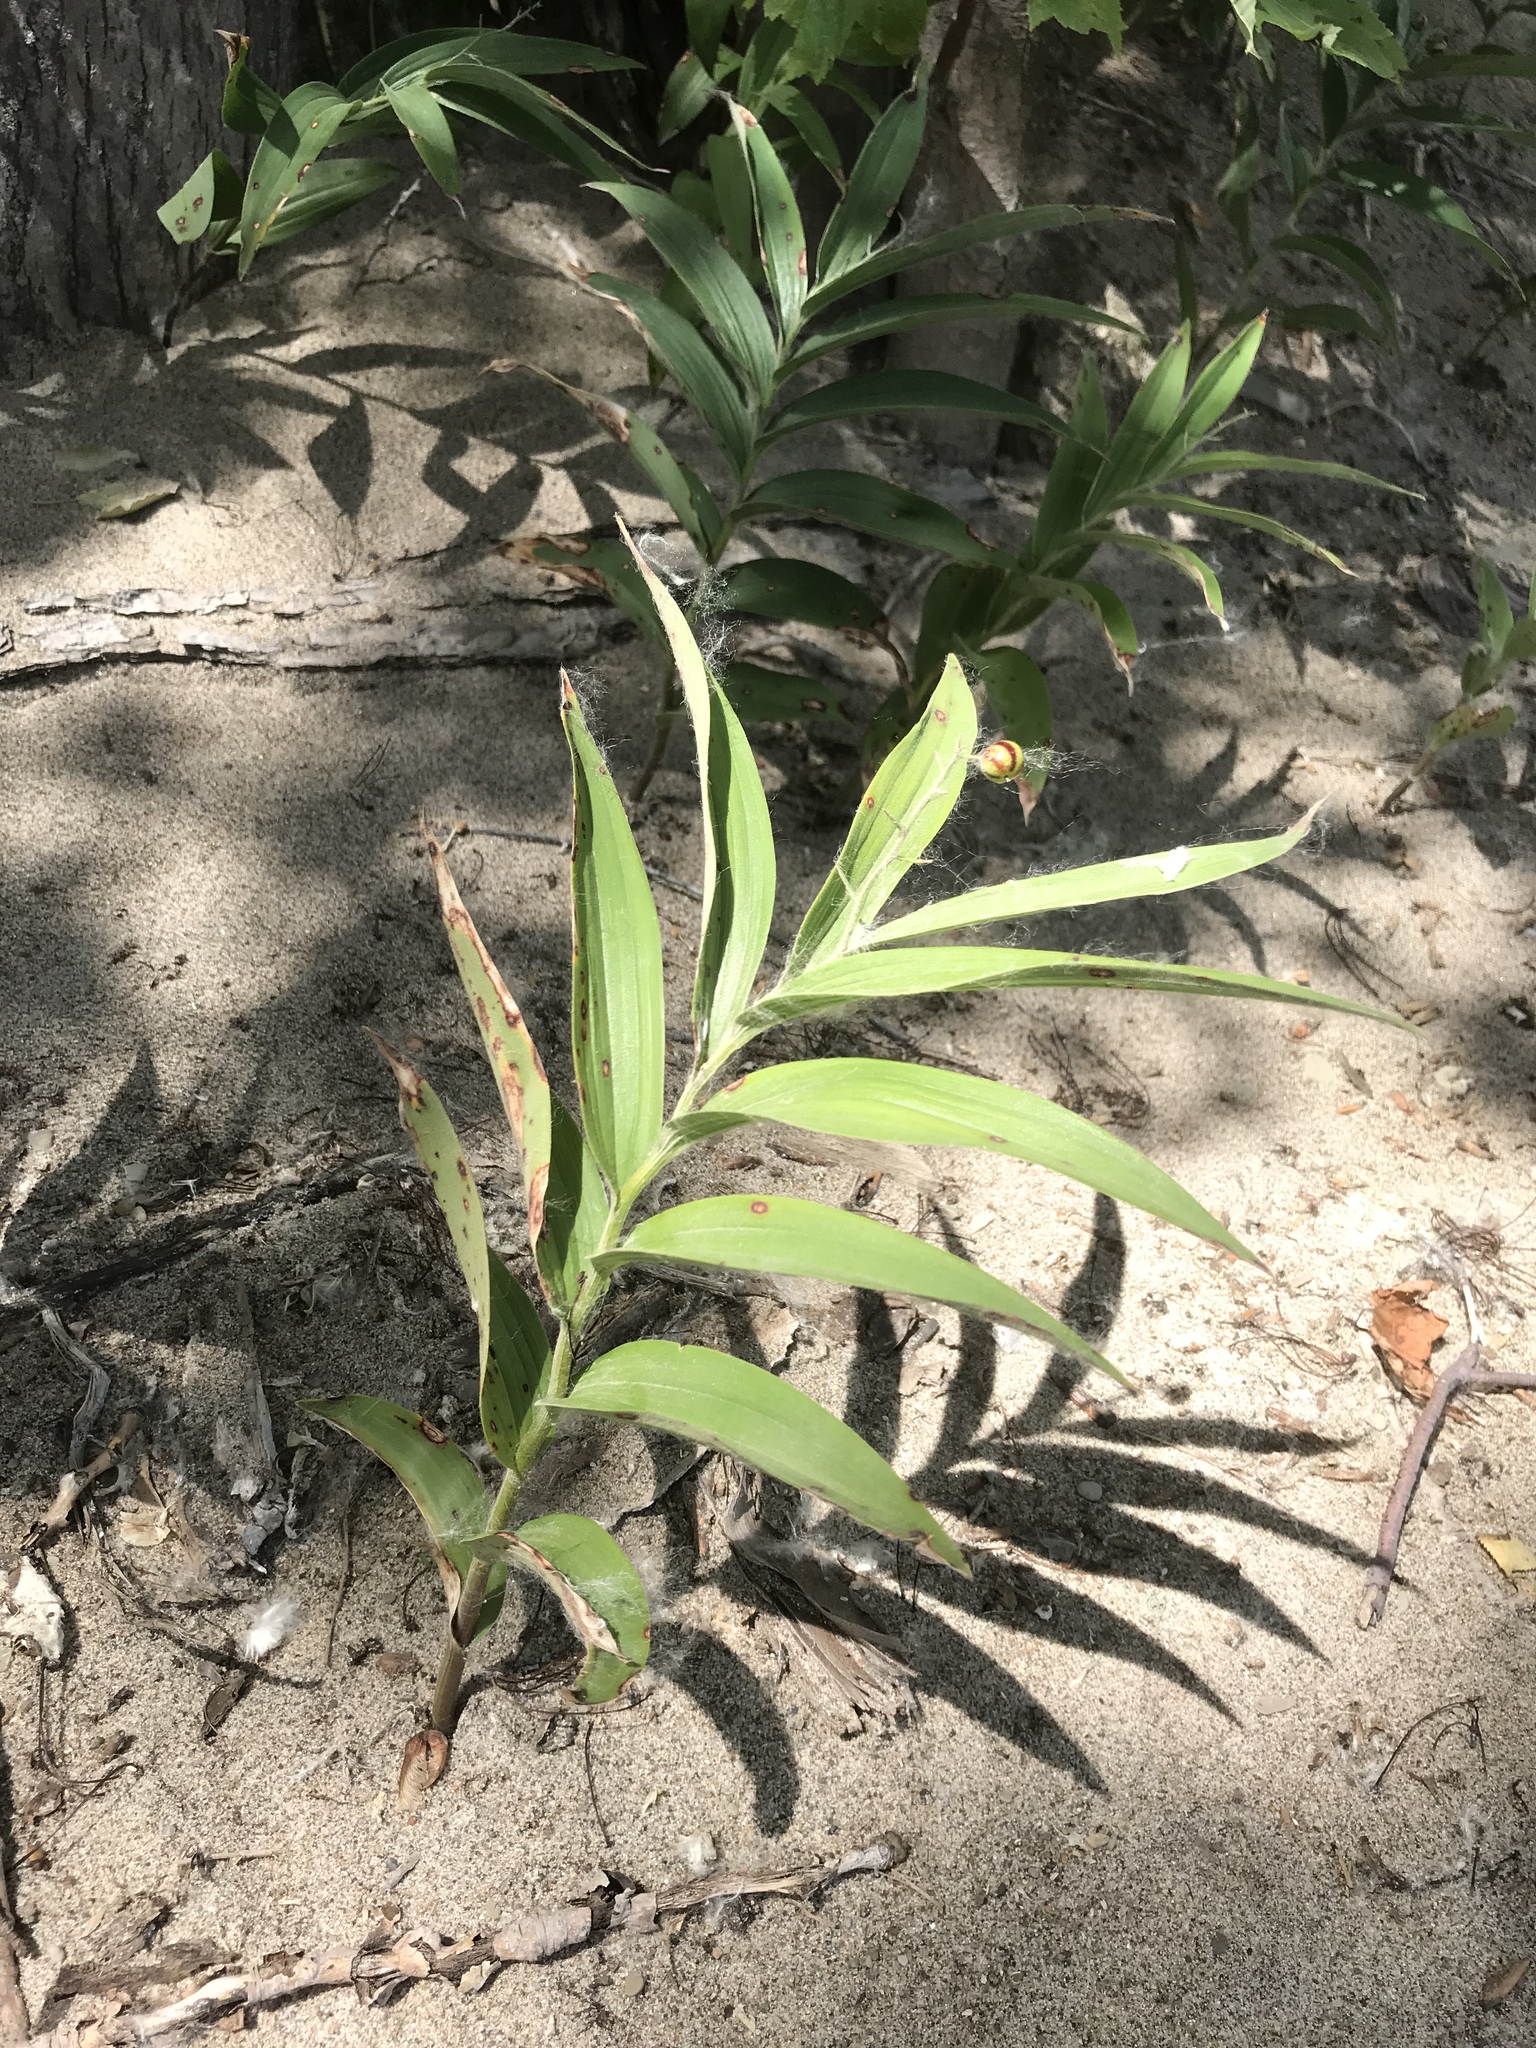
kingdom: Plantae
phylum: Tracheophyta
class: Liliopsida
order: Asparagales
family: Asparagaceae
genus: Maianthemum
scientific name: Maianthemum stellatum
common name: Little false solomon's seal
